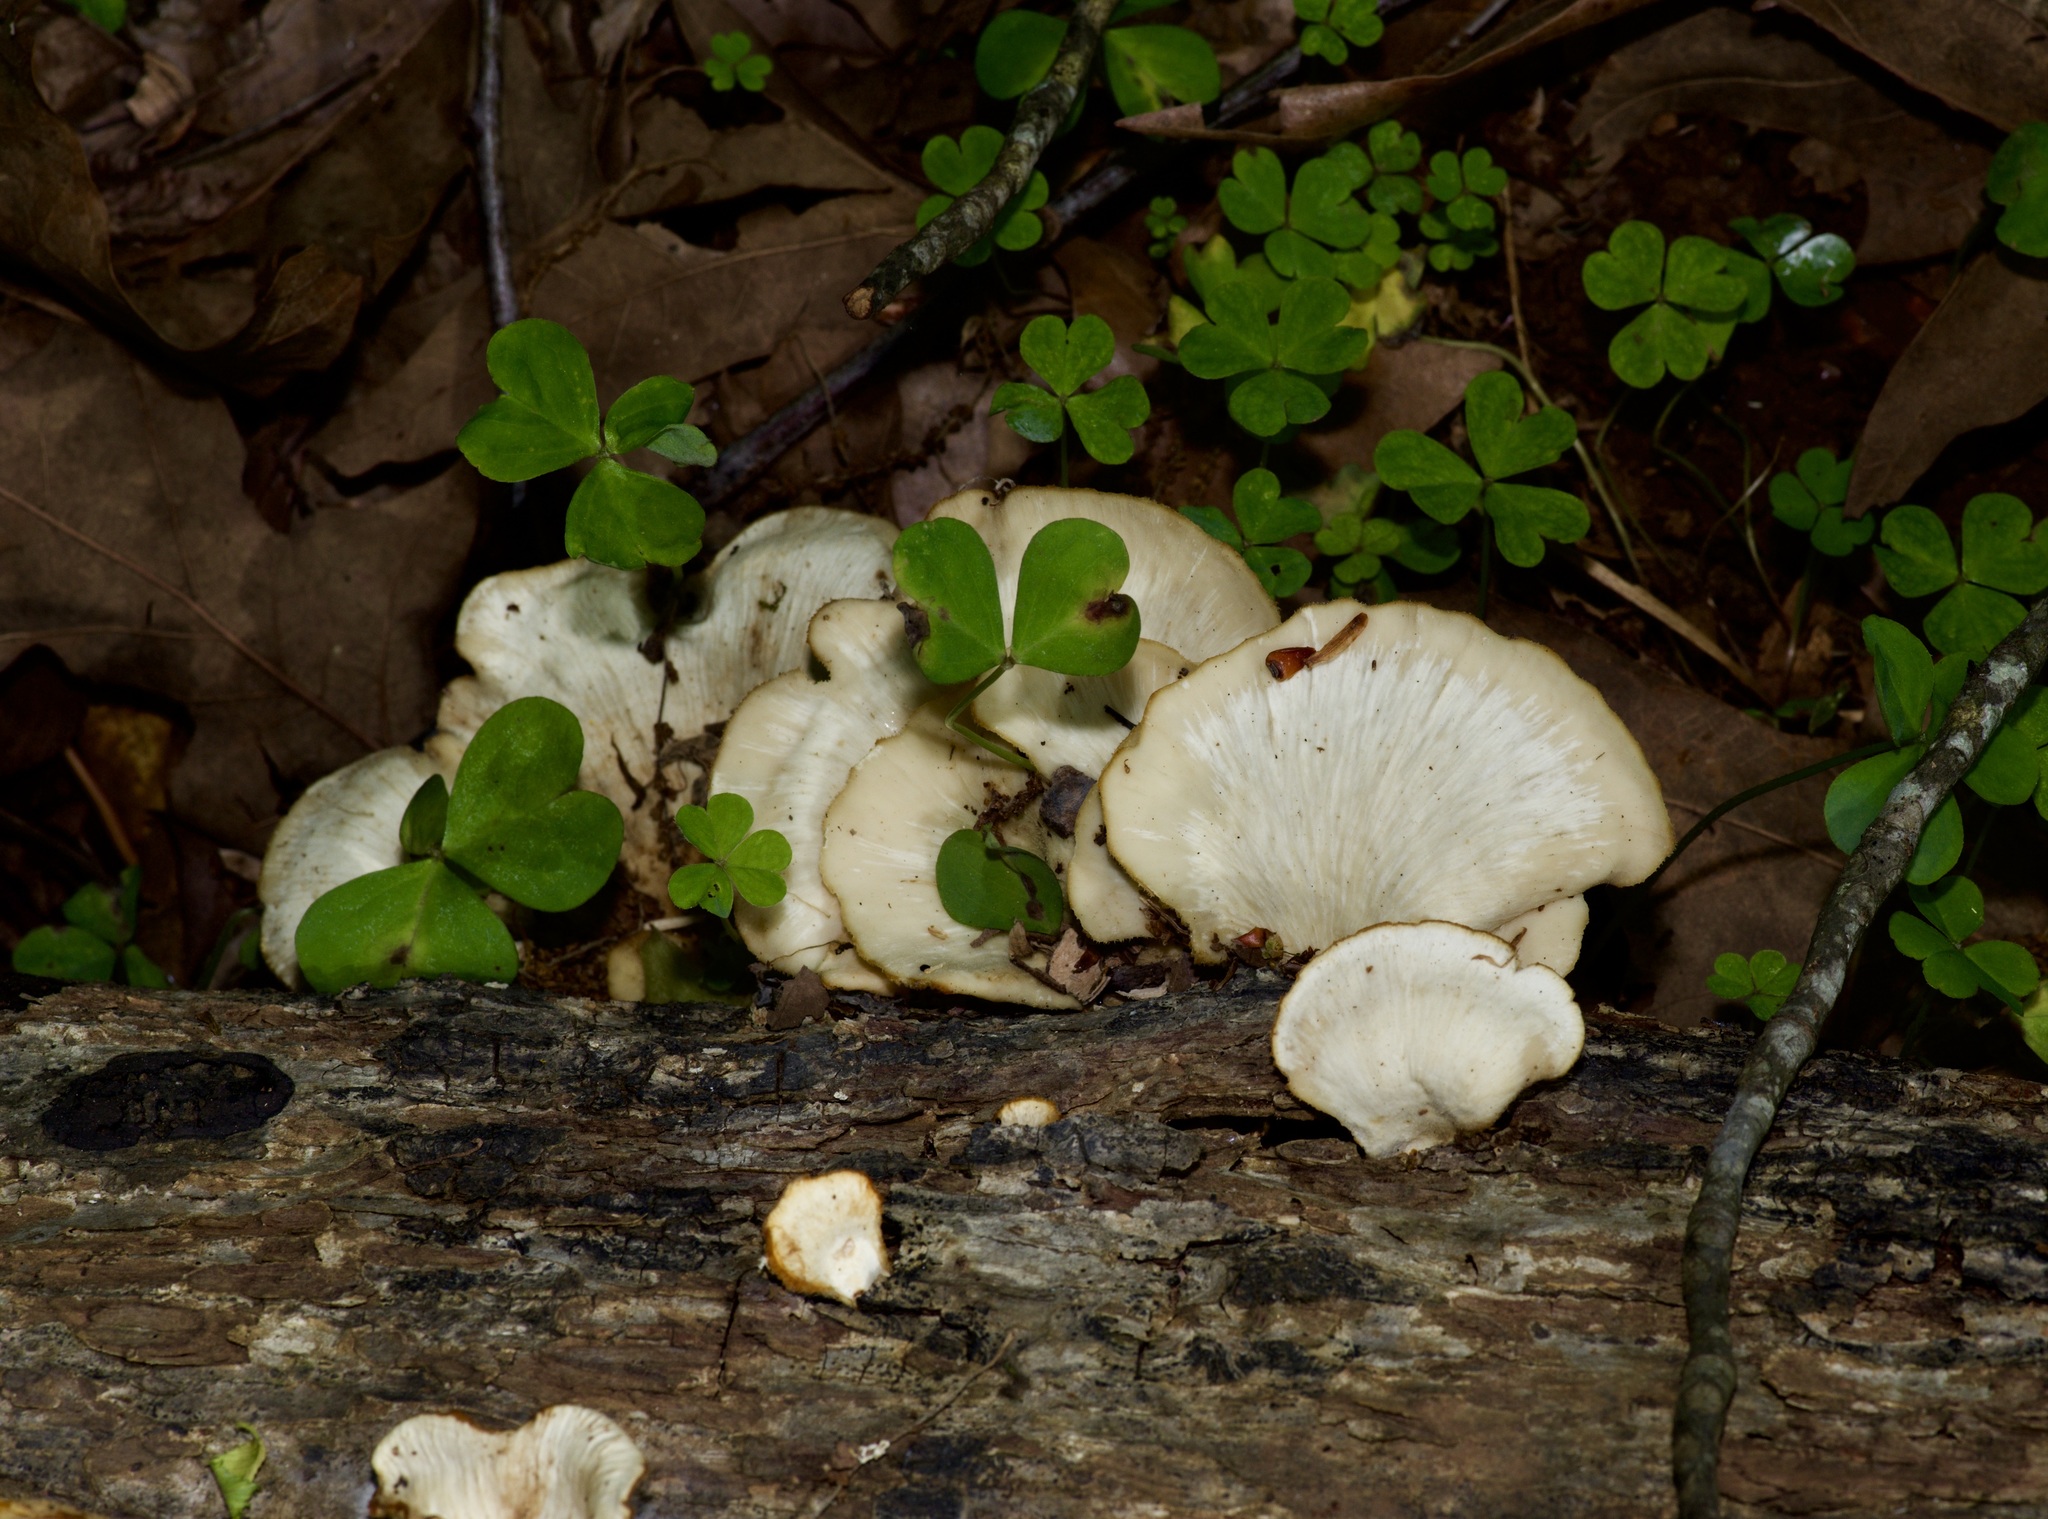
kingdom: Fungi
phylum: Basidiomycota
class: Agaricomycetes
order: Polyporales
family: Polyporaceae
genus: Favolus
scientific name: Favolus tenuiculus
